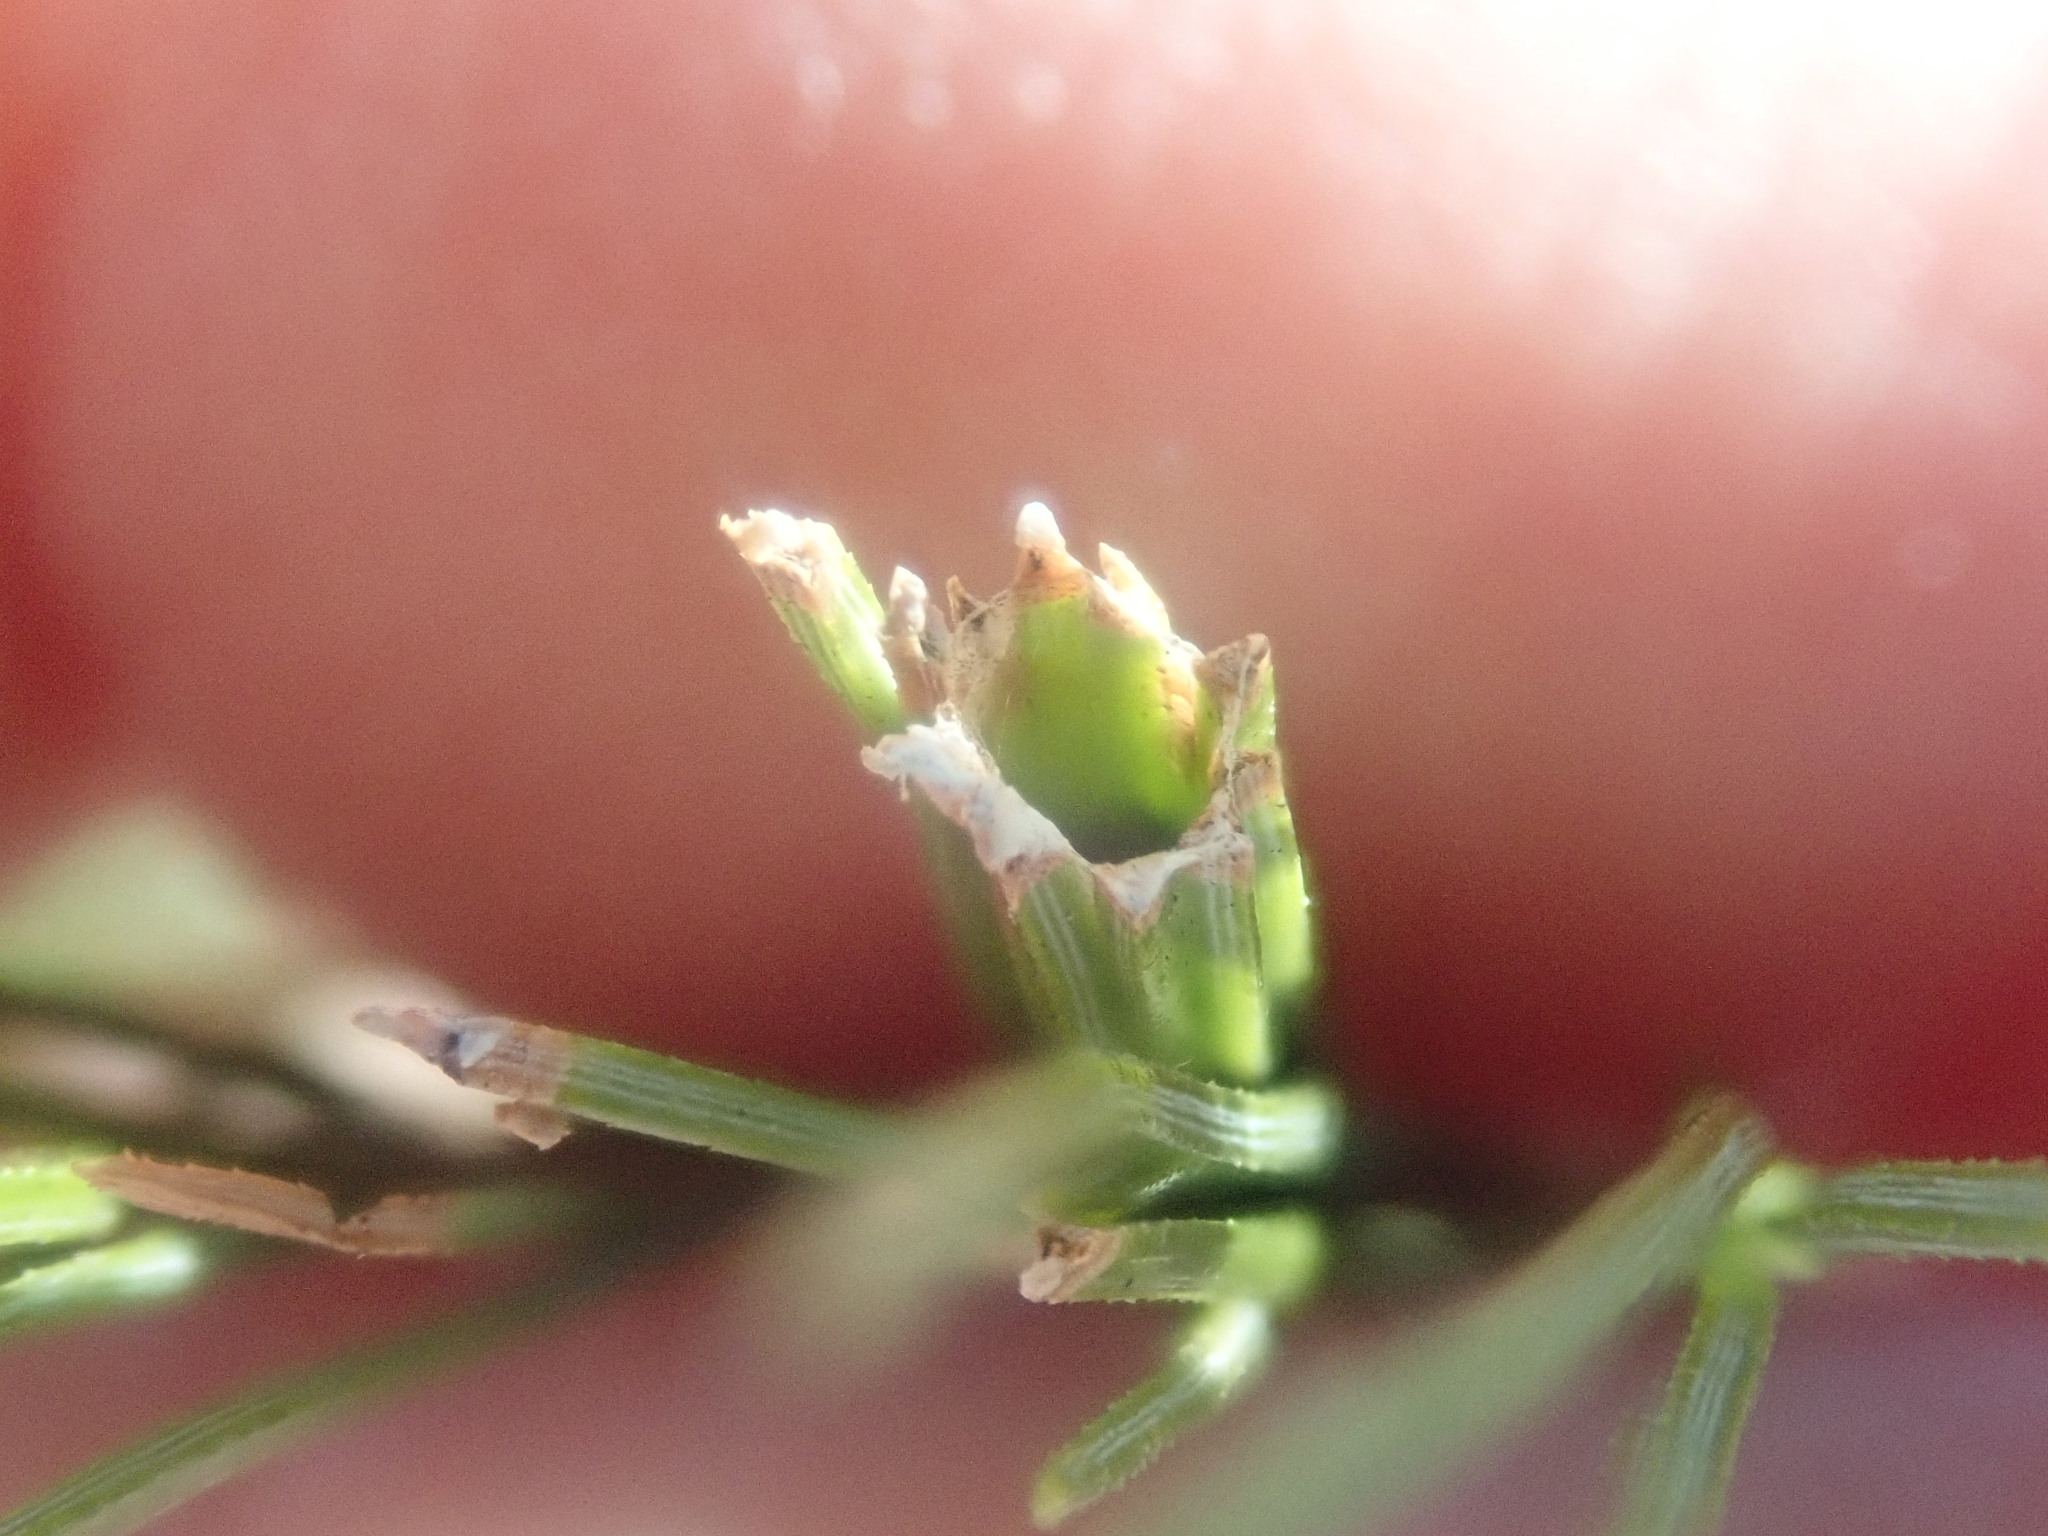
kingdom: Animalia
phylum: Arthropoda
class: Insecta
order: Lepidoptera
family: Tortricidae
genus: Argyrotaenia
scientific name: Argyrotaenia pinatubana
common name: Pine tube moth
